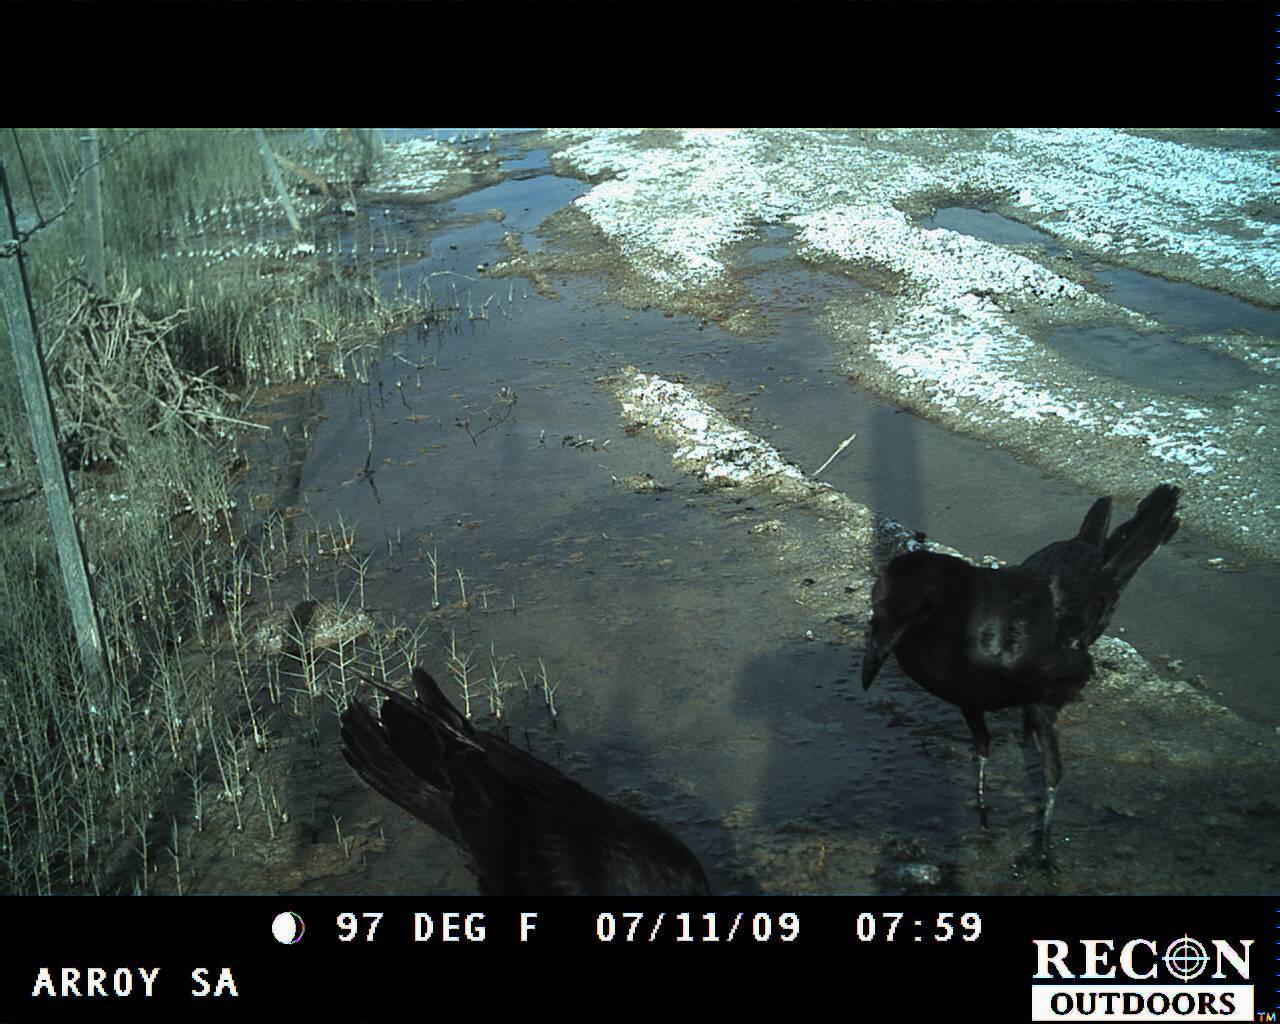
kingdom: Animalia
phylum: Chordata
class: Aves
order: Passeriformes
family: Corvidae
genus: Corvus
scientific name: Corvus corax
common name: Common raven
